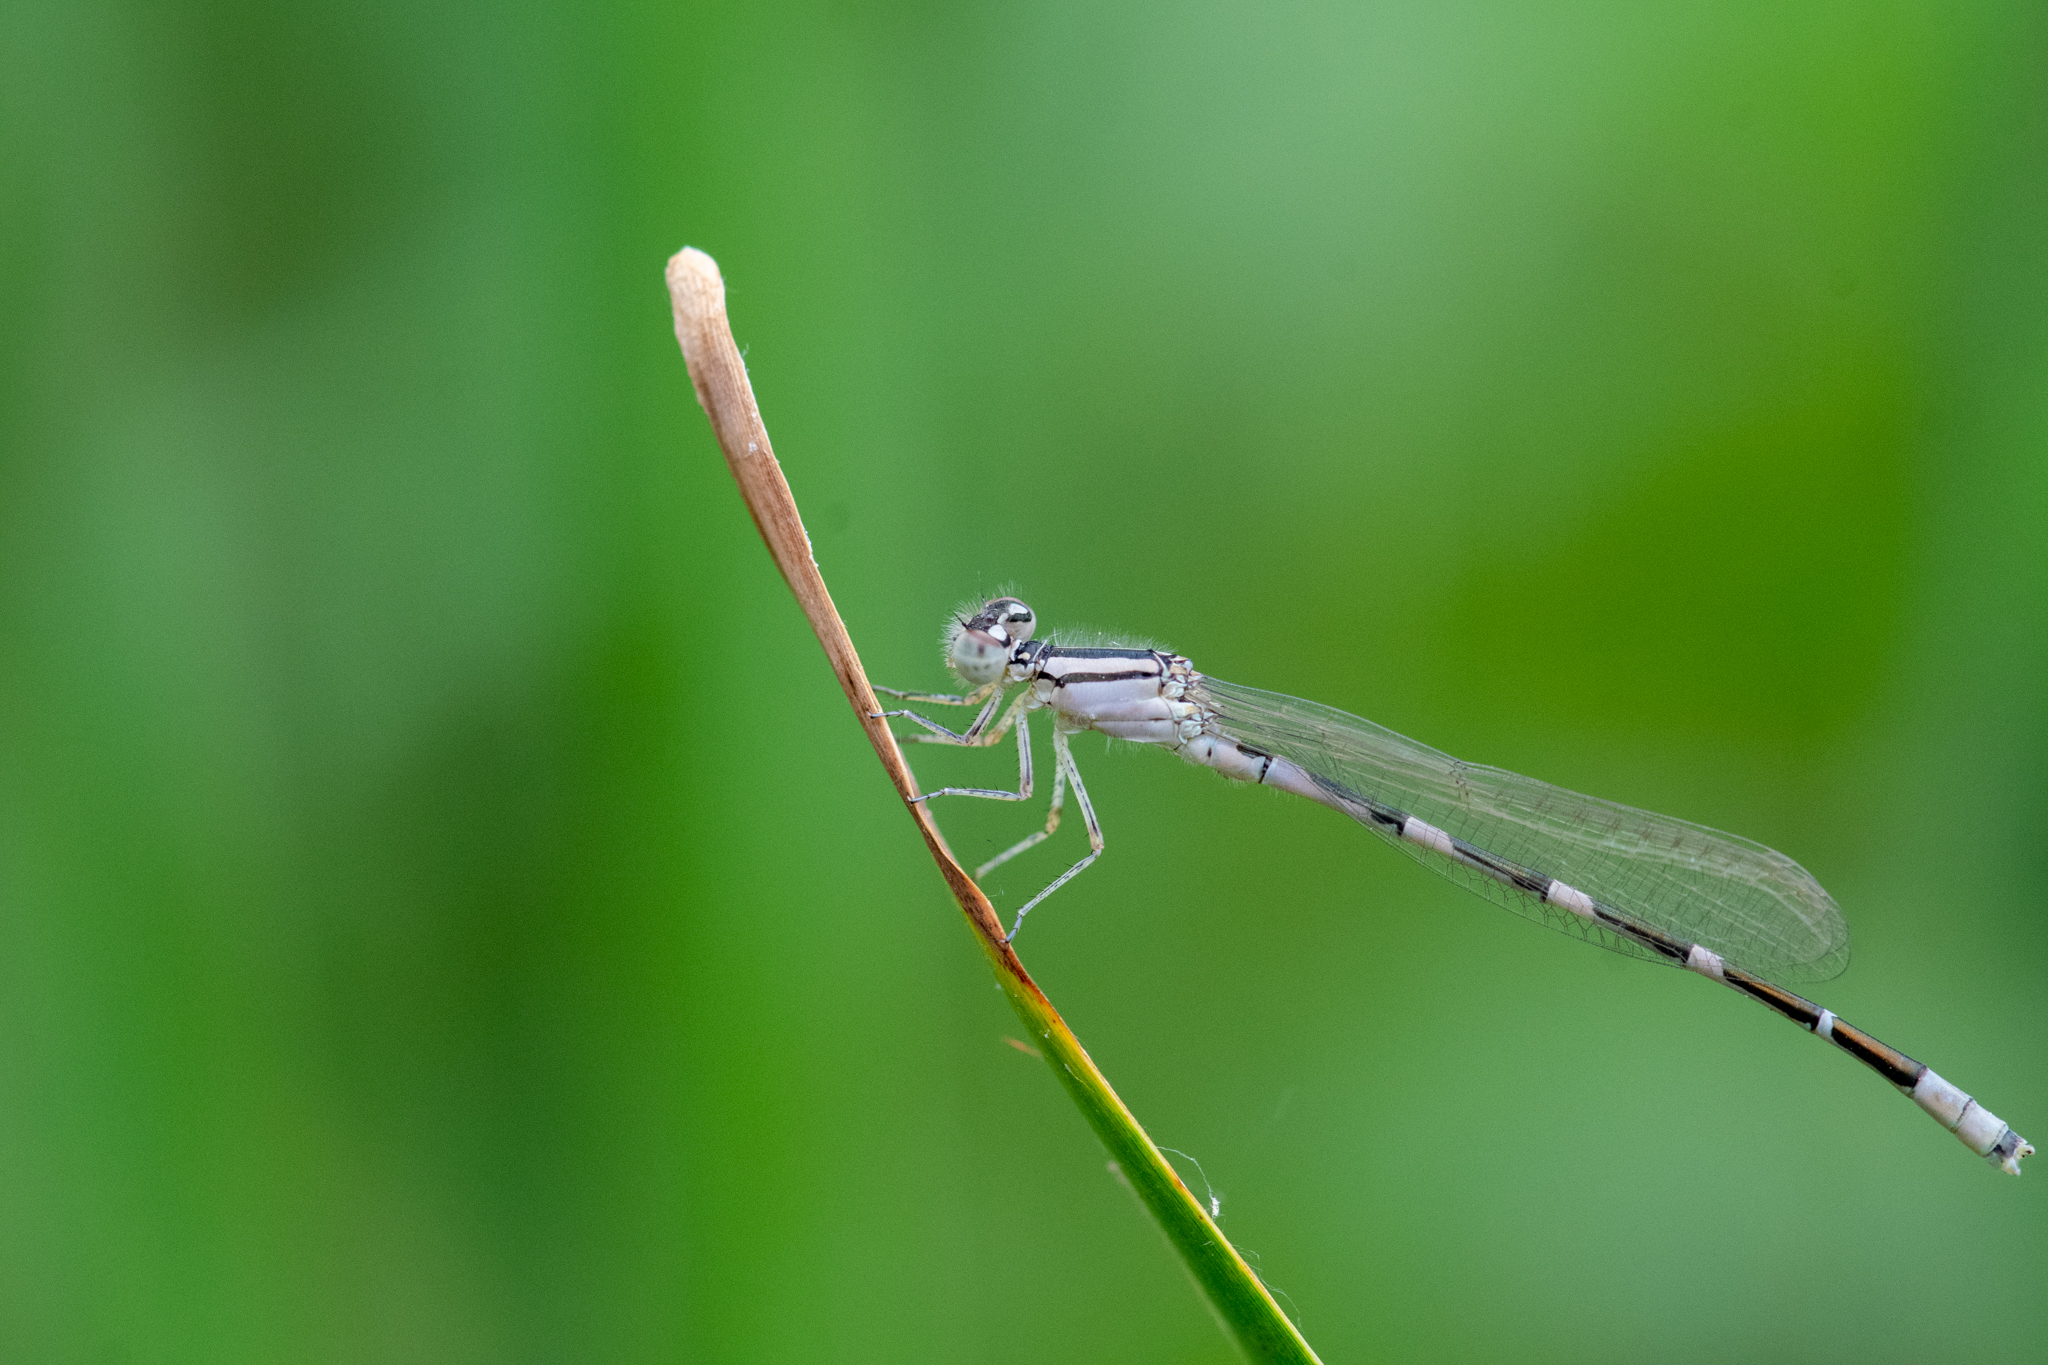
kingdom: Animalia
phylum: Arthropoda
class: Insecta
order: Odonata
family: Coenagrionidae
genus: Enallagma
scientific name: Enallagma carunculatum
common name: Tule bluet
